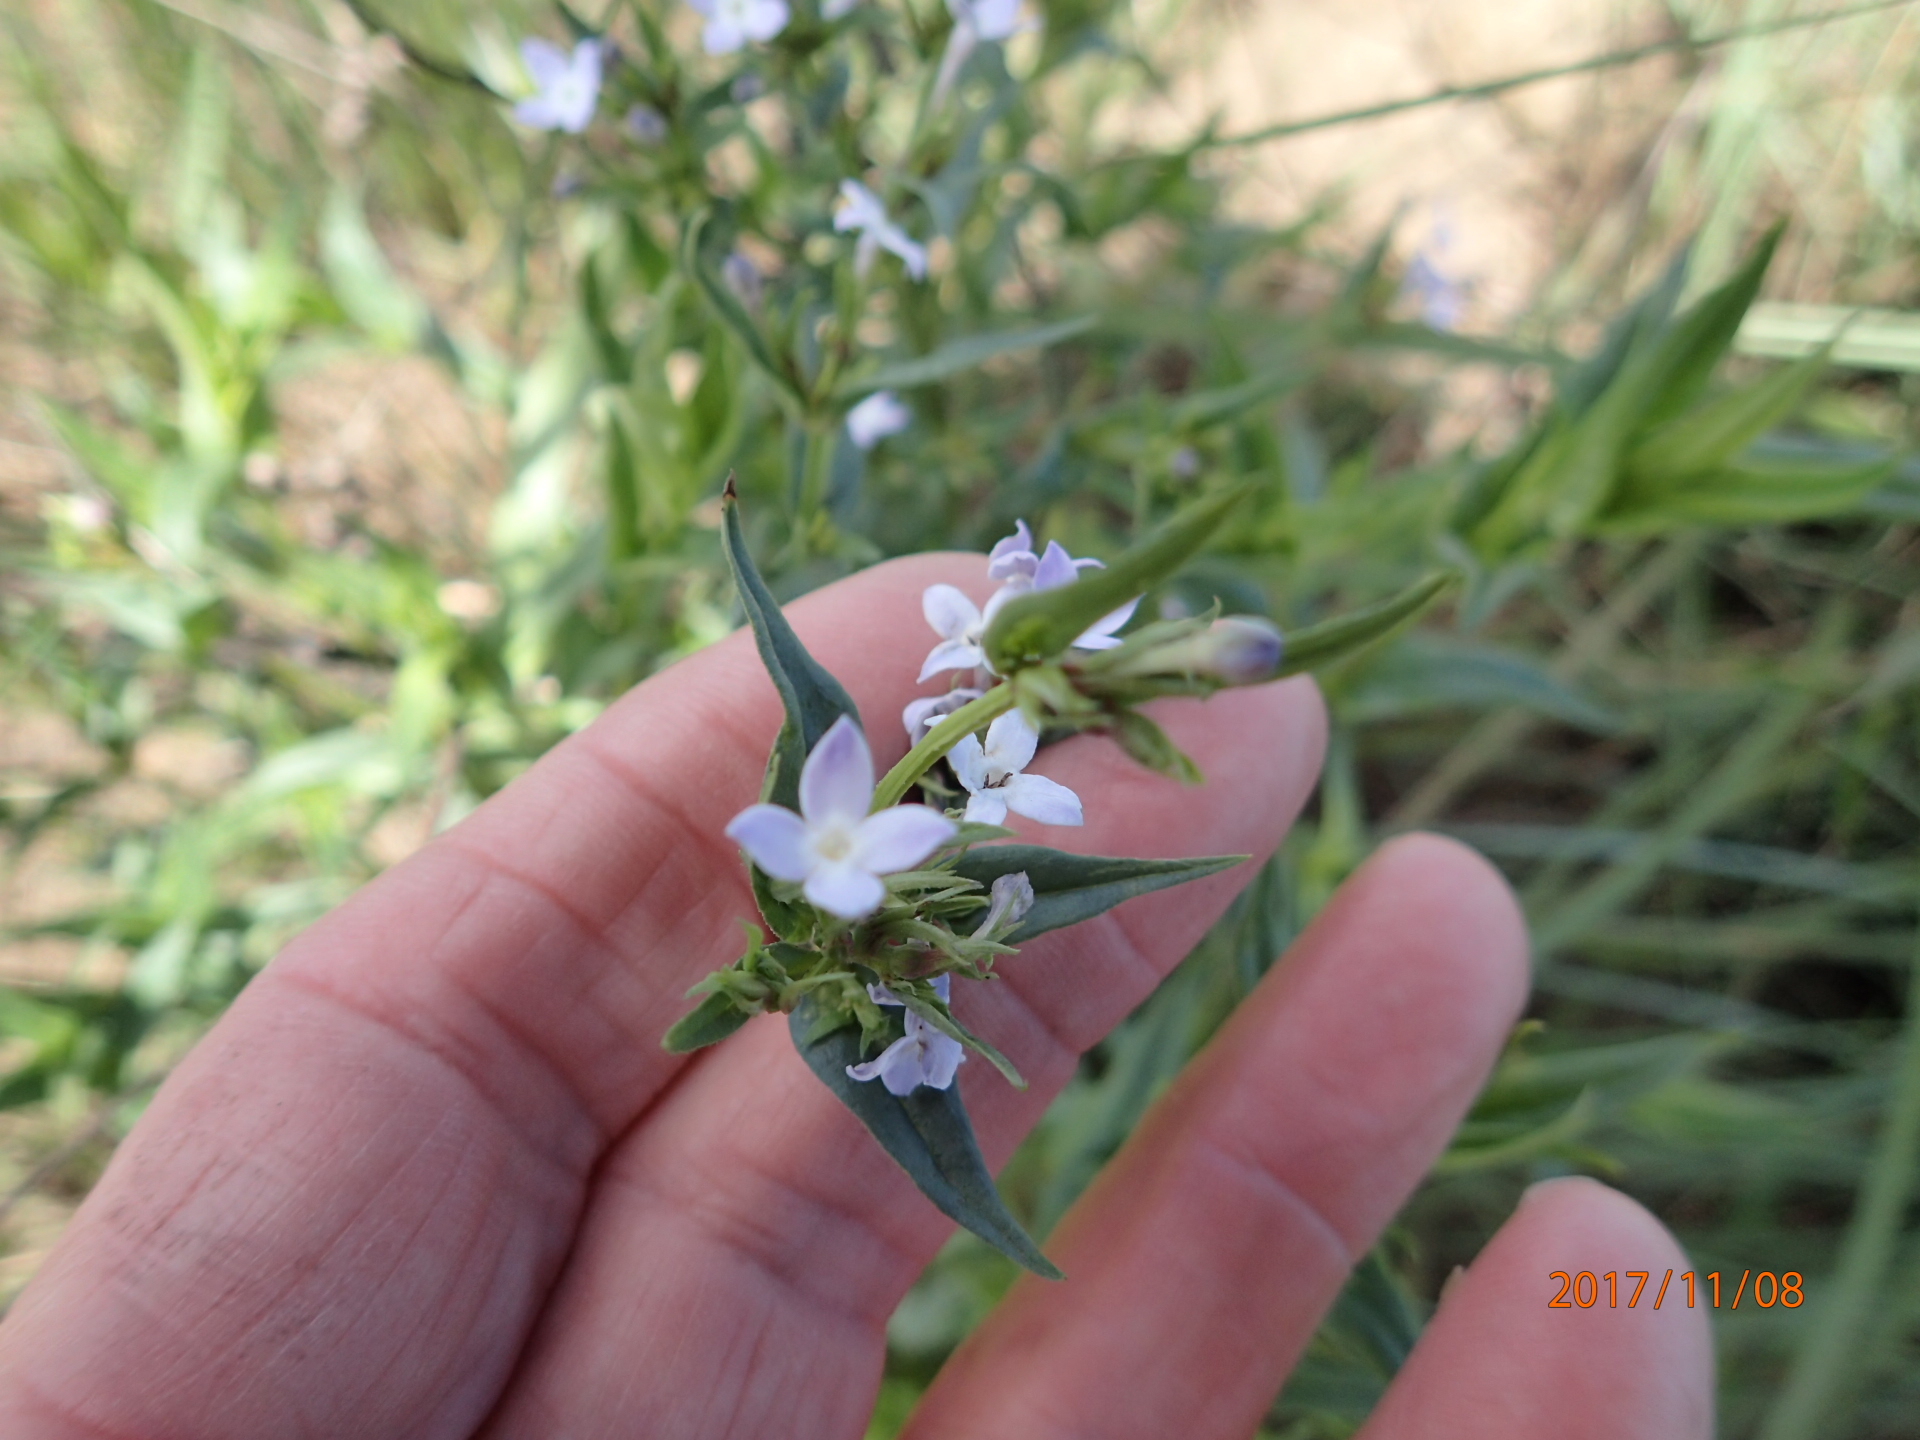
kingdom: Plantae
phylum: Tracheophyta
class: Magnoliopsida
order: Gentianales
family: Rubiaceae
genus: Conostomium
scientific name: Conostomium natalense
